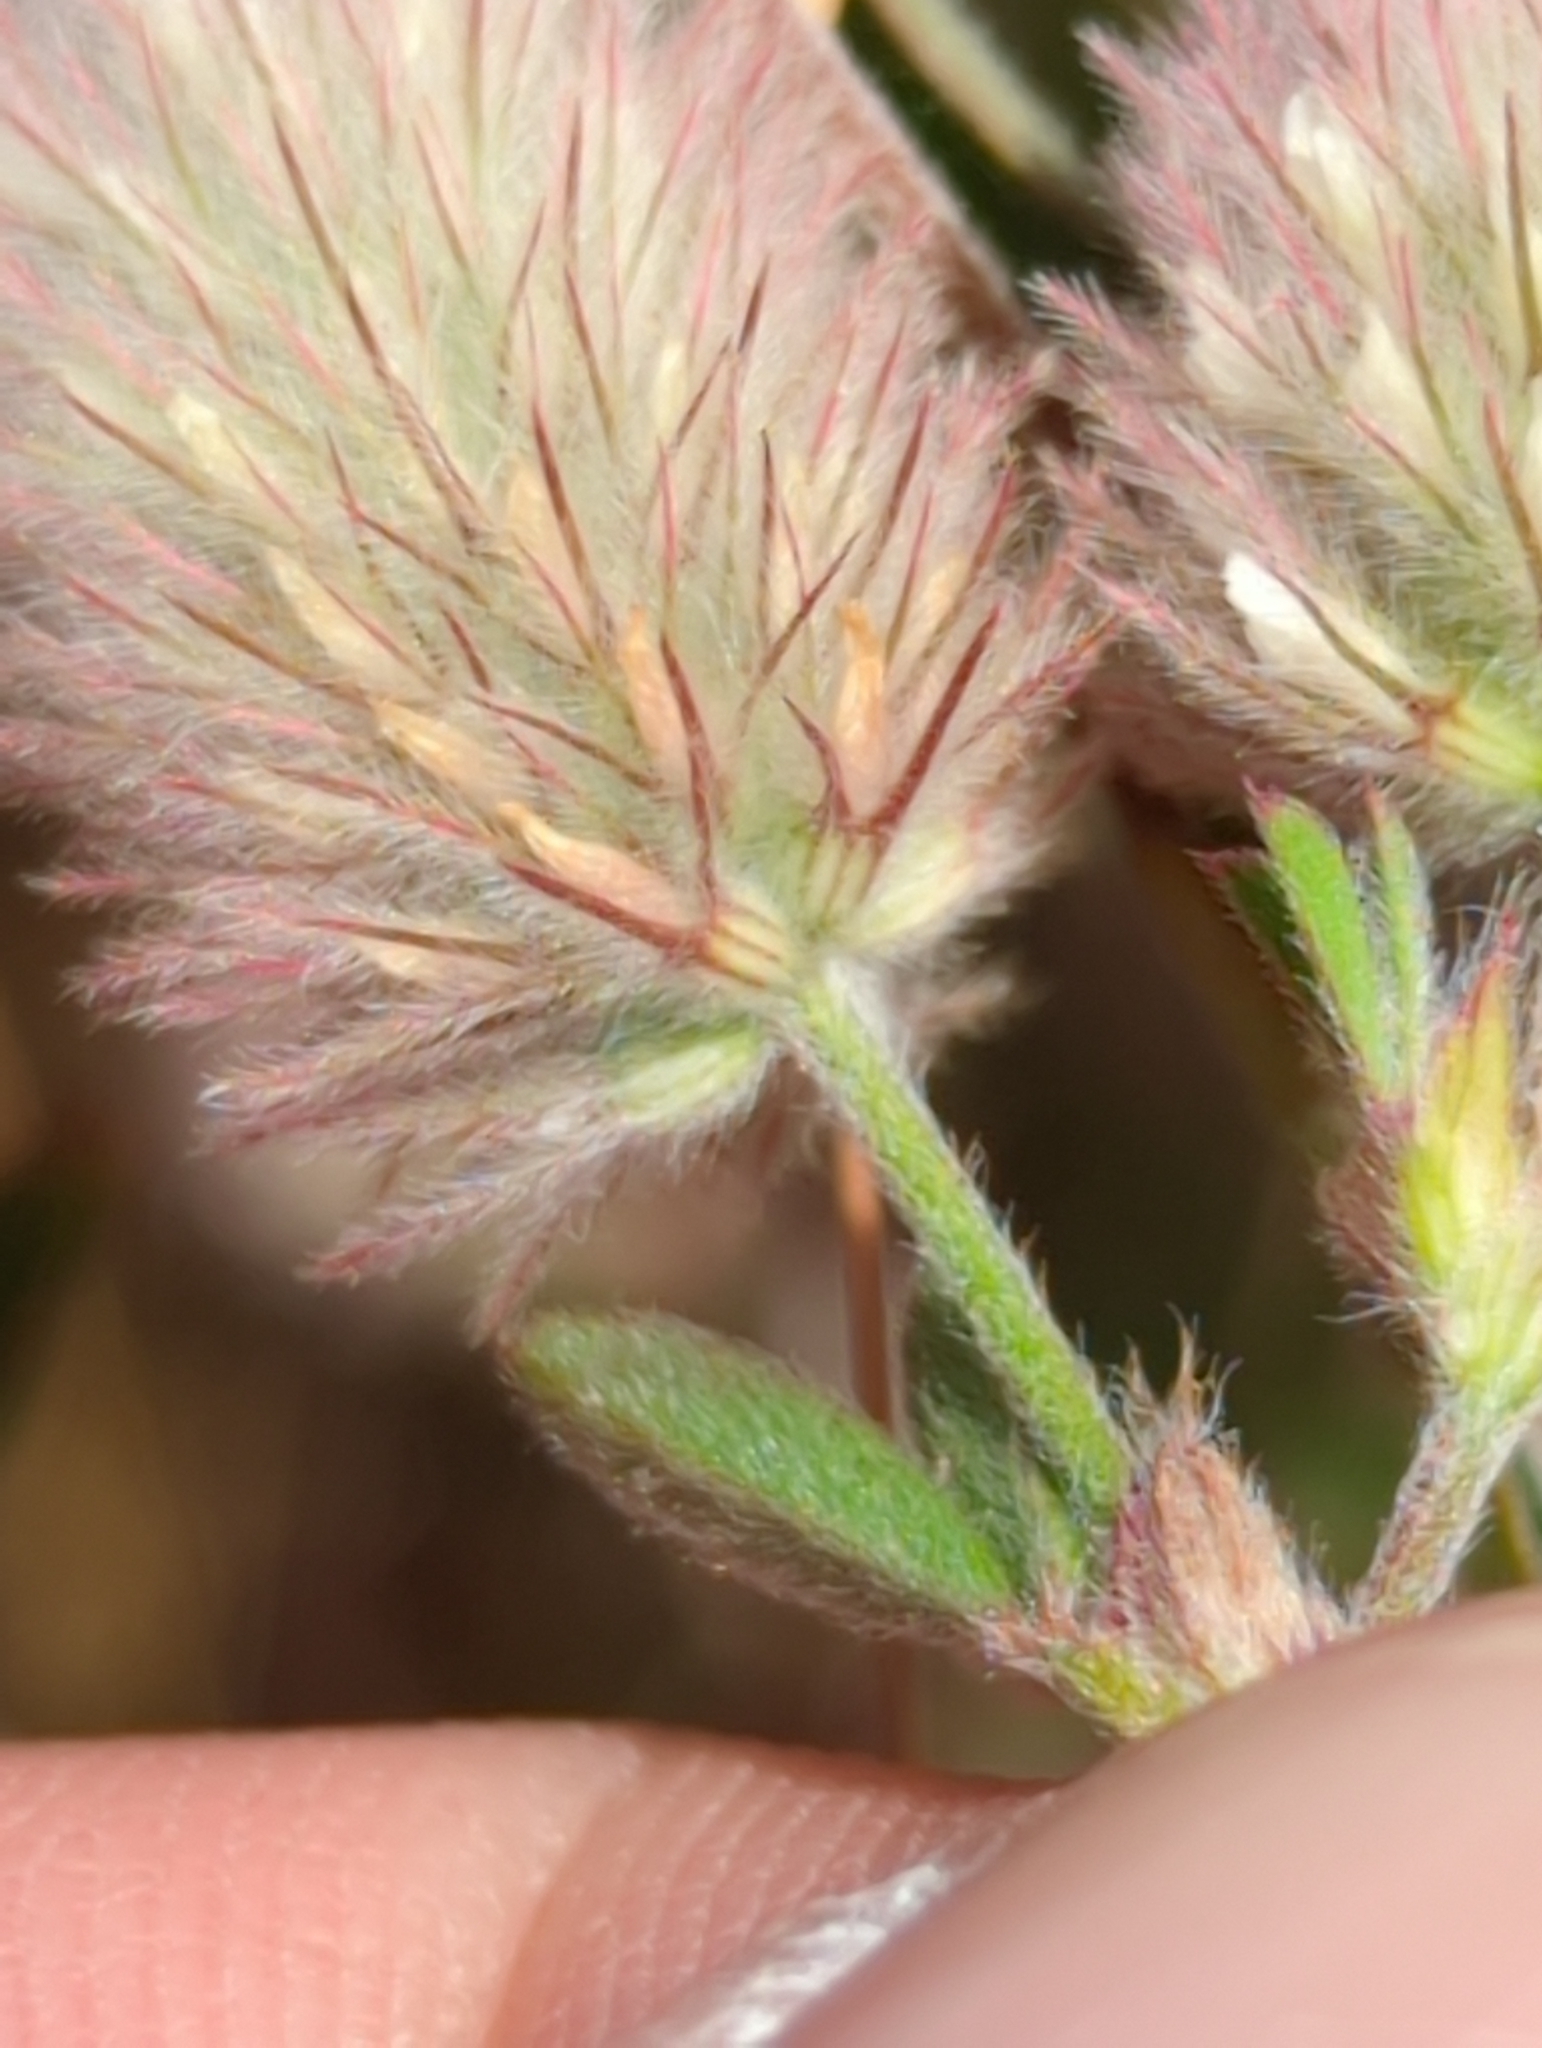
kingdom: Plantae
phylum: Tracheophyta
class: Magnoliopsida
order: Fabales
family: Fabaceae
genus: Trifolium
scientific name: Trifolium arvense
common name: Hare's-foot clover
